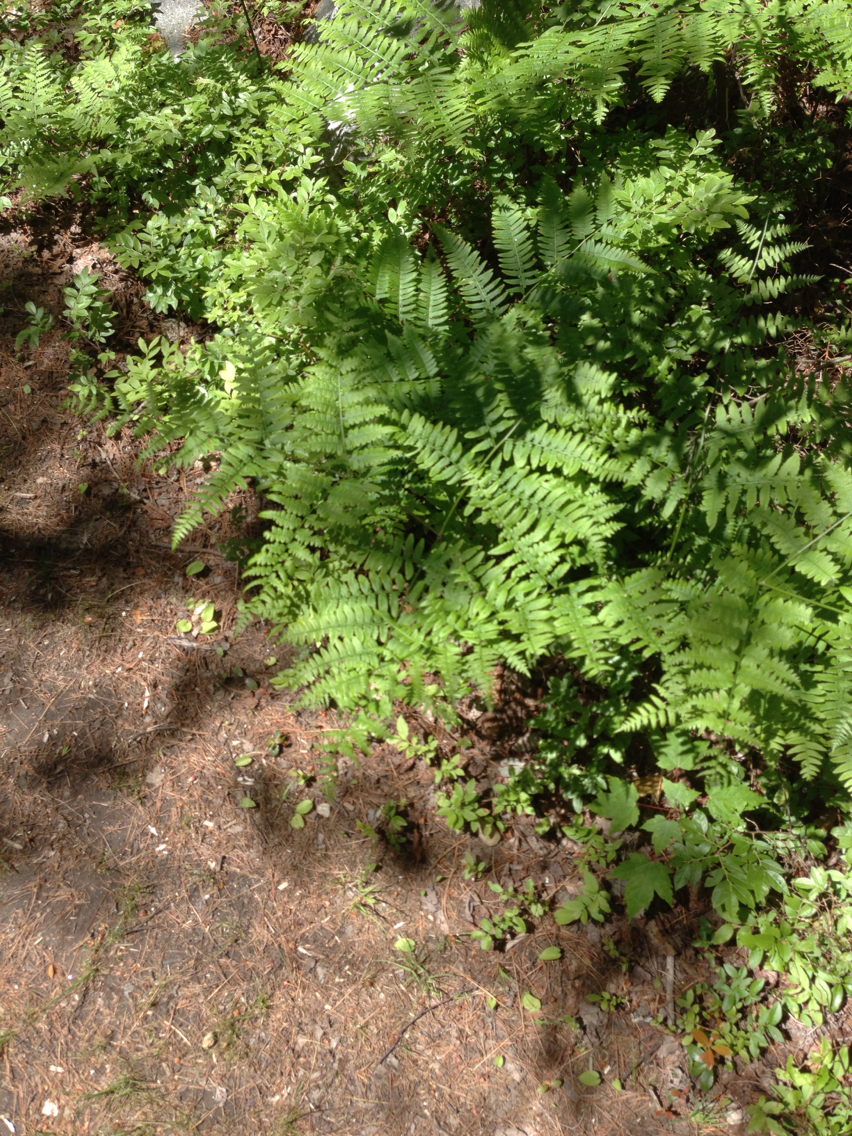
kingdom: Plantae
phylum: Tracheophyta
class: Polypodiopsida
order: Polypodiales
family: Dennstaedtiaceae
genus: Pteridium
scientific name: Pteridium aquilinum
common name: Bracken
